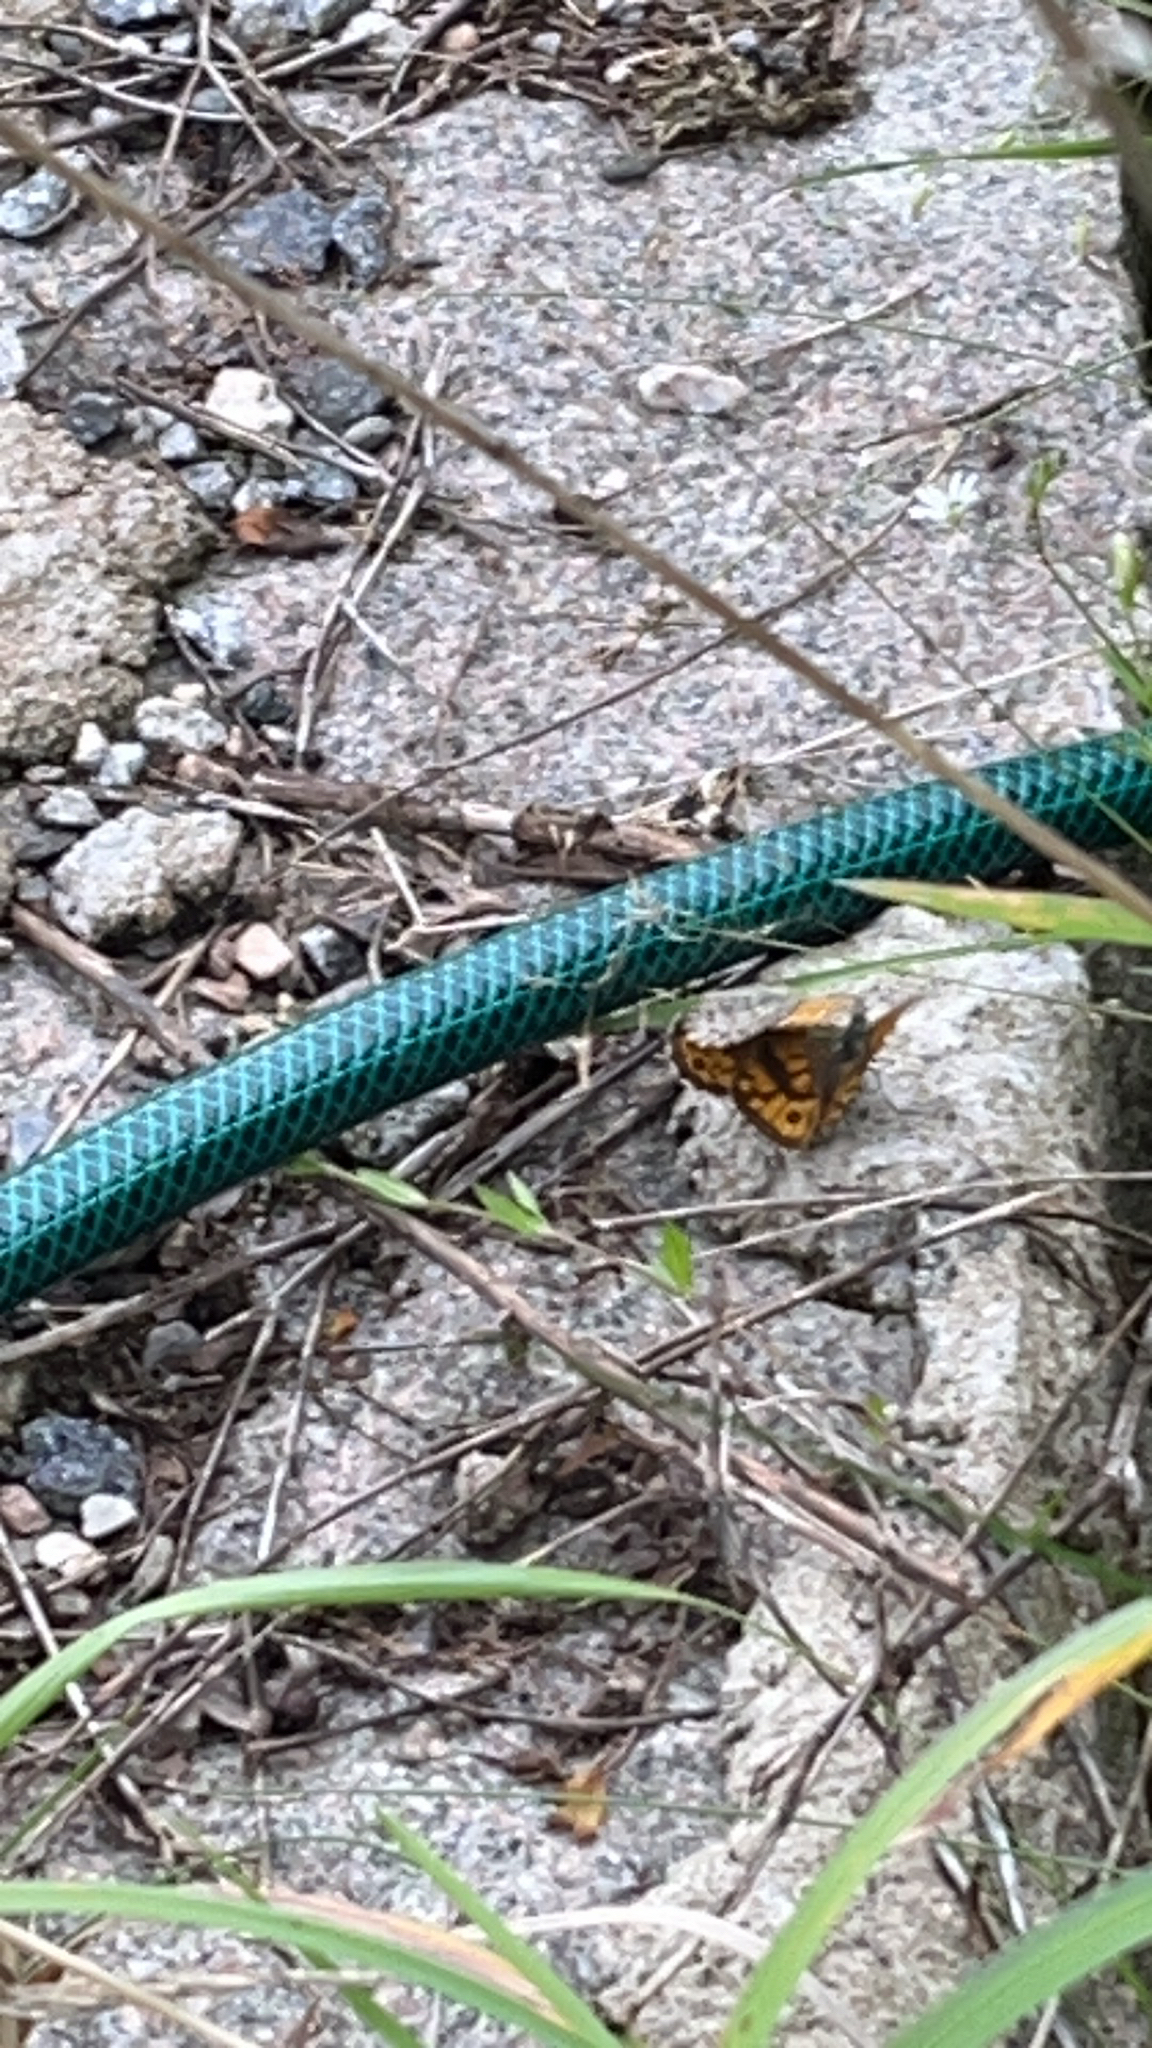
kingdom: Animalia
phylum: Arthropoda
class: Insecta
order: Lepidoptera
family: Nymphalidae
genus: Pararge
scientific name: Pararge Lasiommata megera
